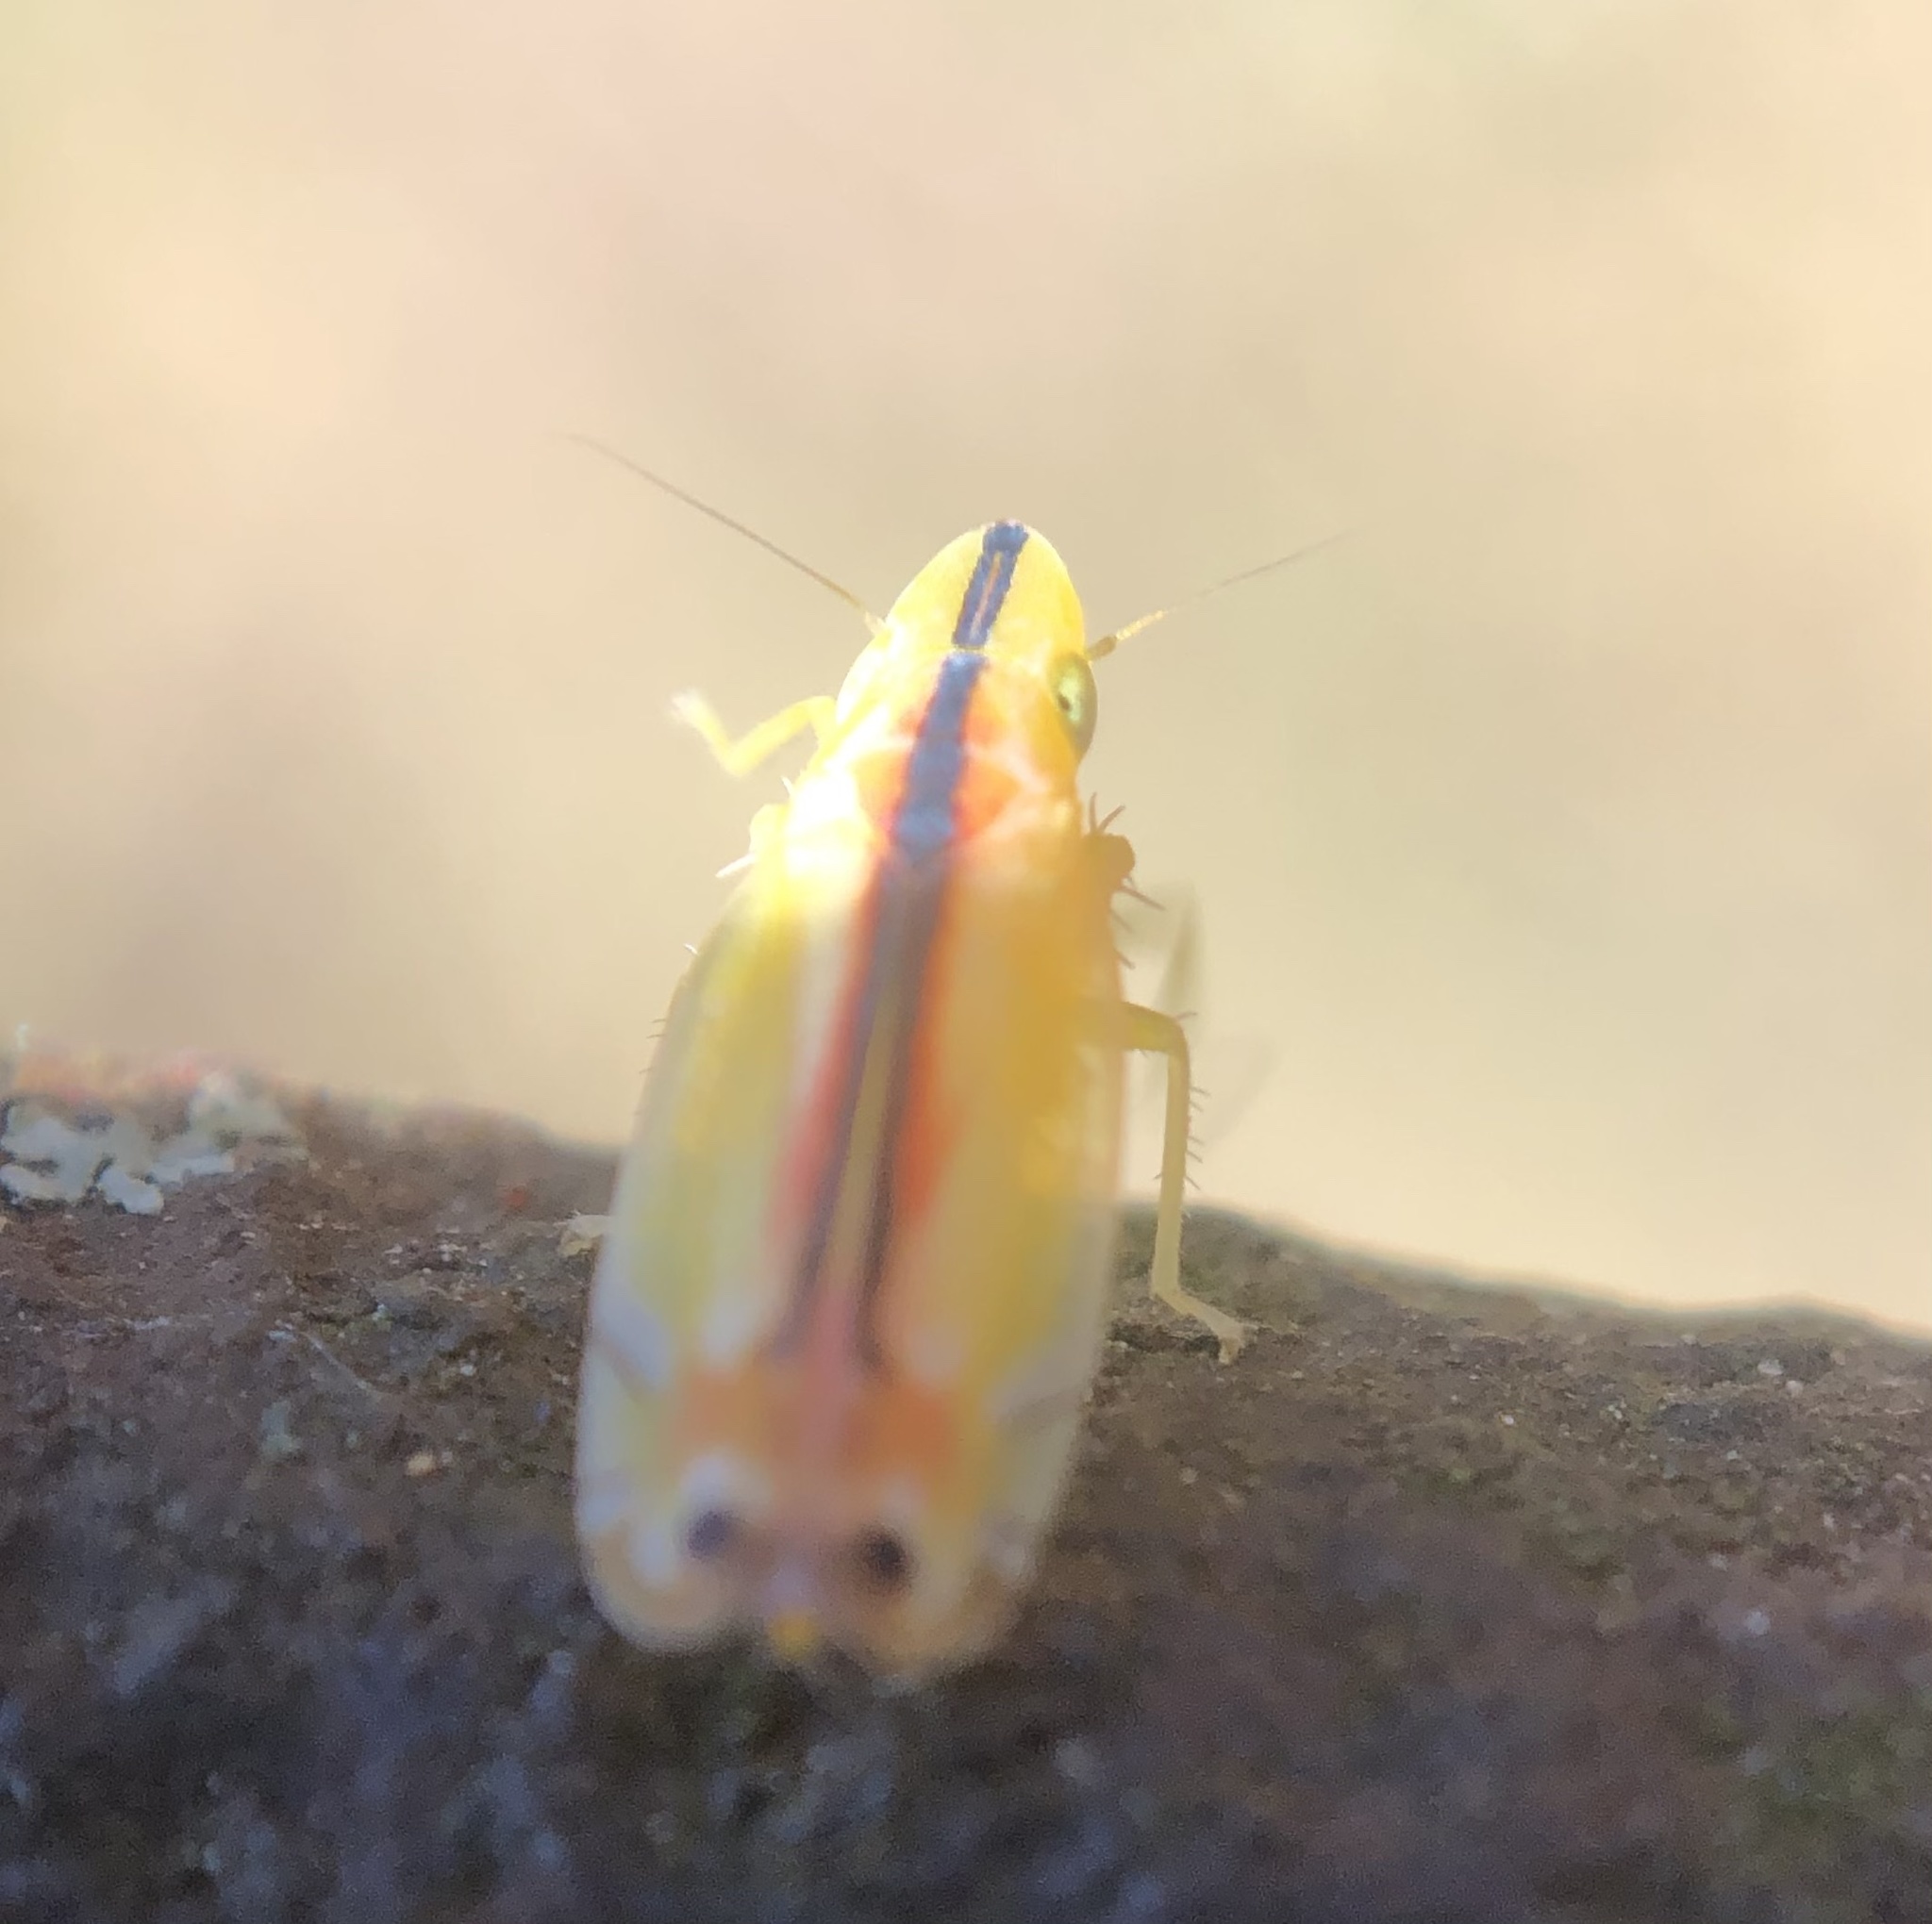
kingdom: Animalia
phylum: Arthropoda
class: Insecta
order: Hemiptera
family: Cicadellidae
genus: Sophonia
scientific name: Sophonia orientalis
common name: Two-spotted leafhopper
